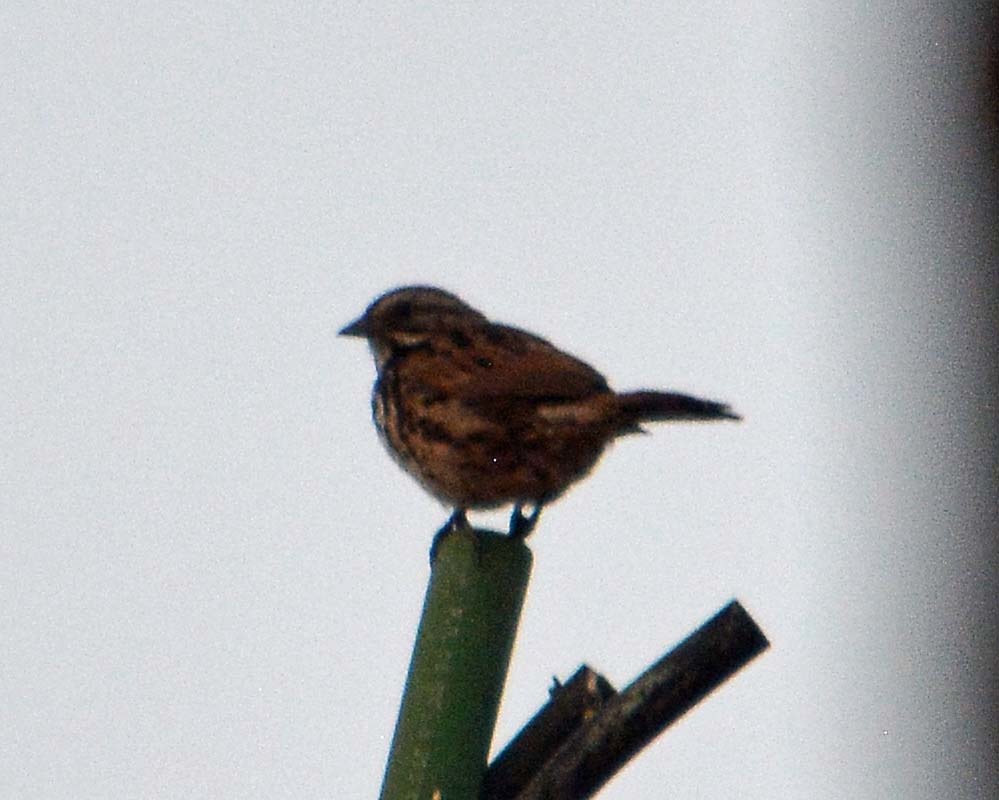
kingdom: Animalia
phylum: Chordata
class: Aves
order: Passeriformes
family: Passerellidae
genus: Melospiza
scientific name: Melospiza melodia
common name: Song sparrow
